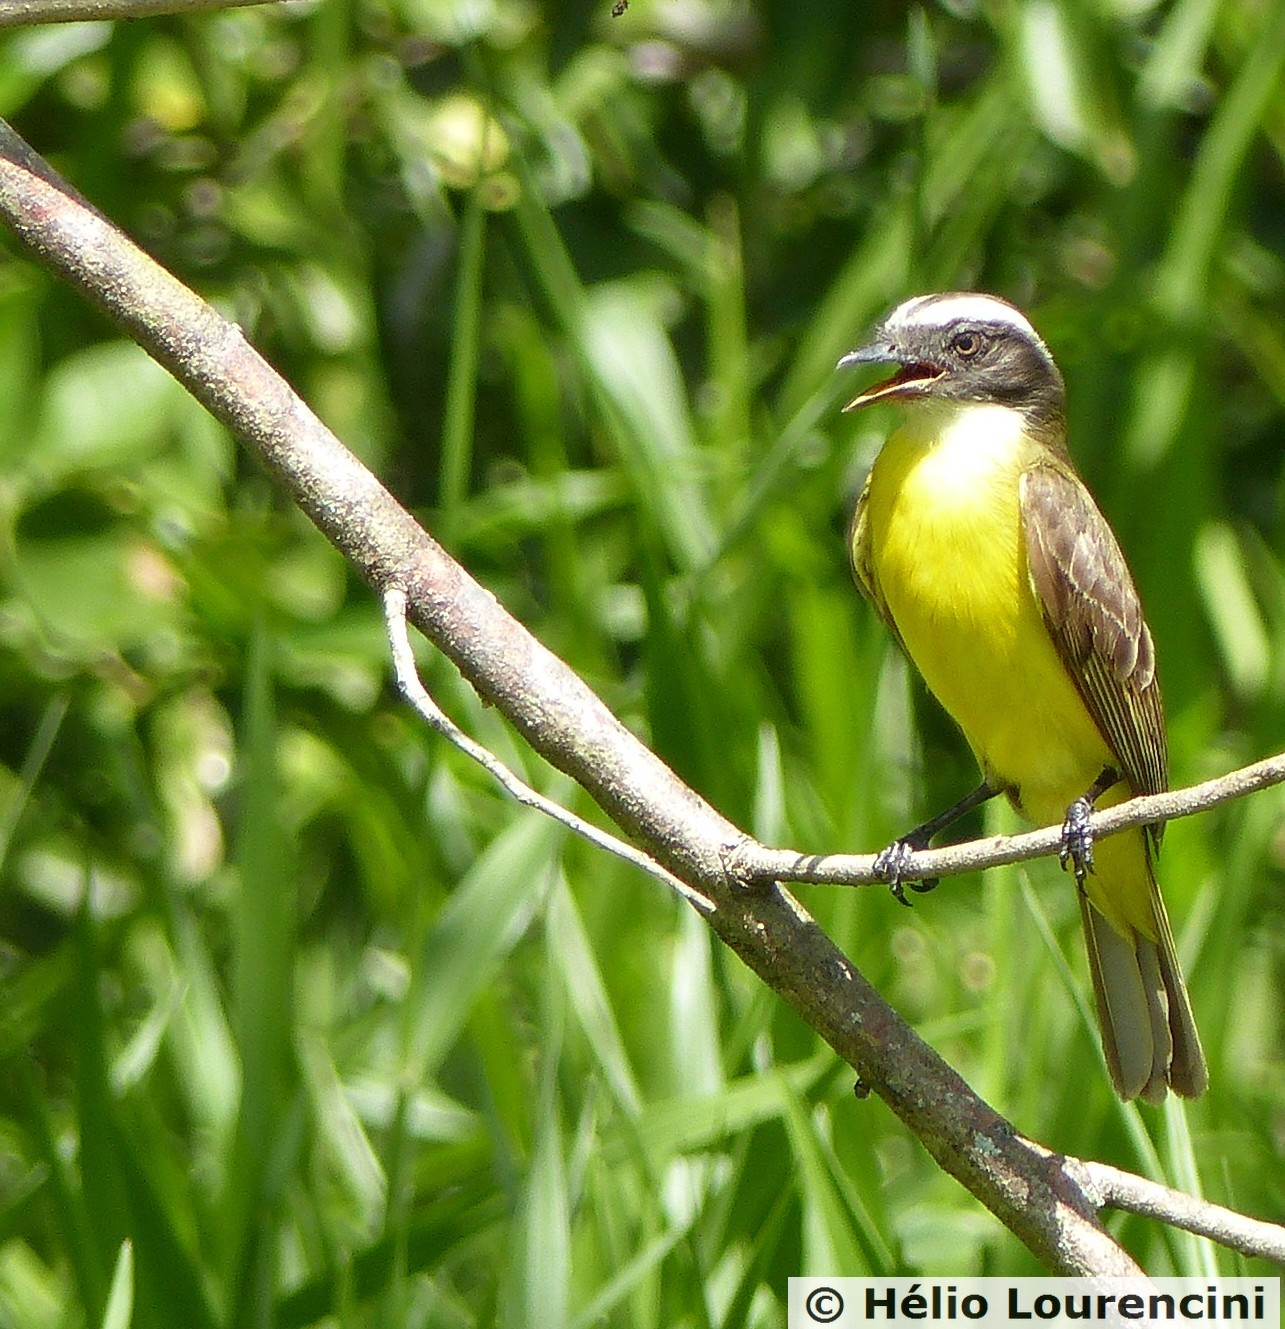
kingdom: Animalia
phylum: Chordata
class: Aves
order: Passeriformes
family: Tyrannidae
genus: Myiozetetes
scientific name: Myiozetetes similis
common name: Social flycatcher
